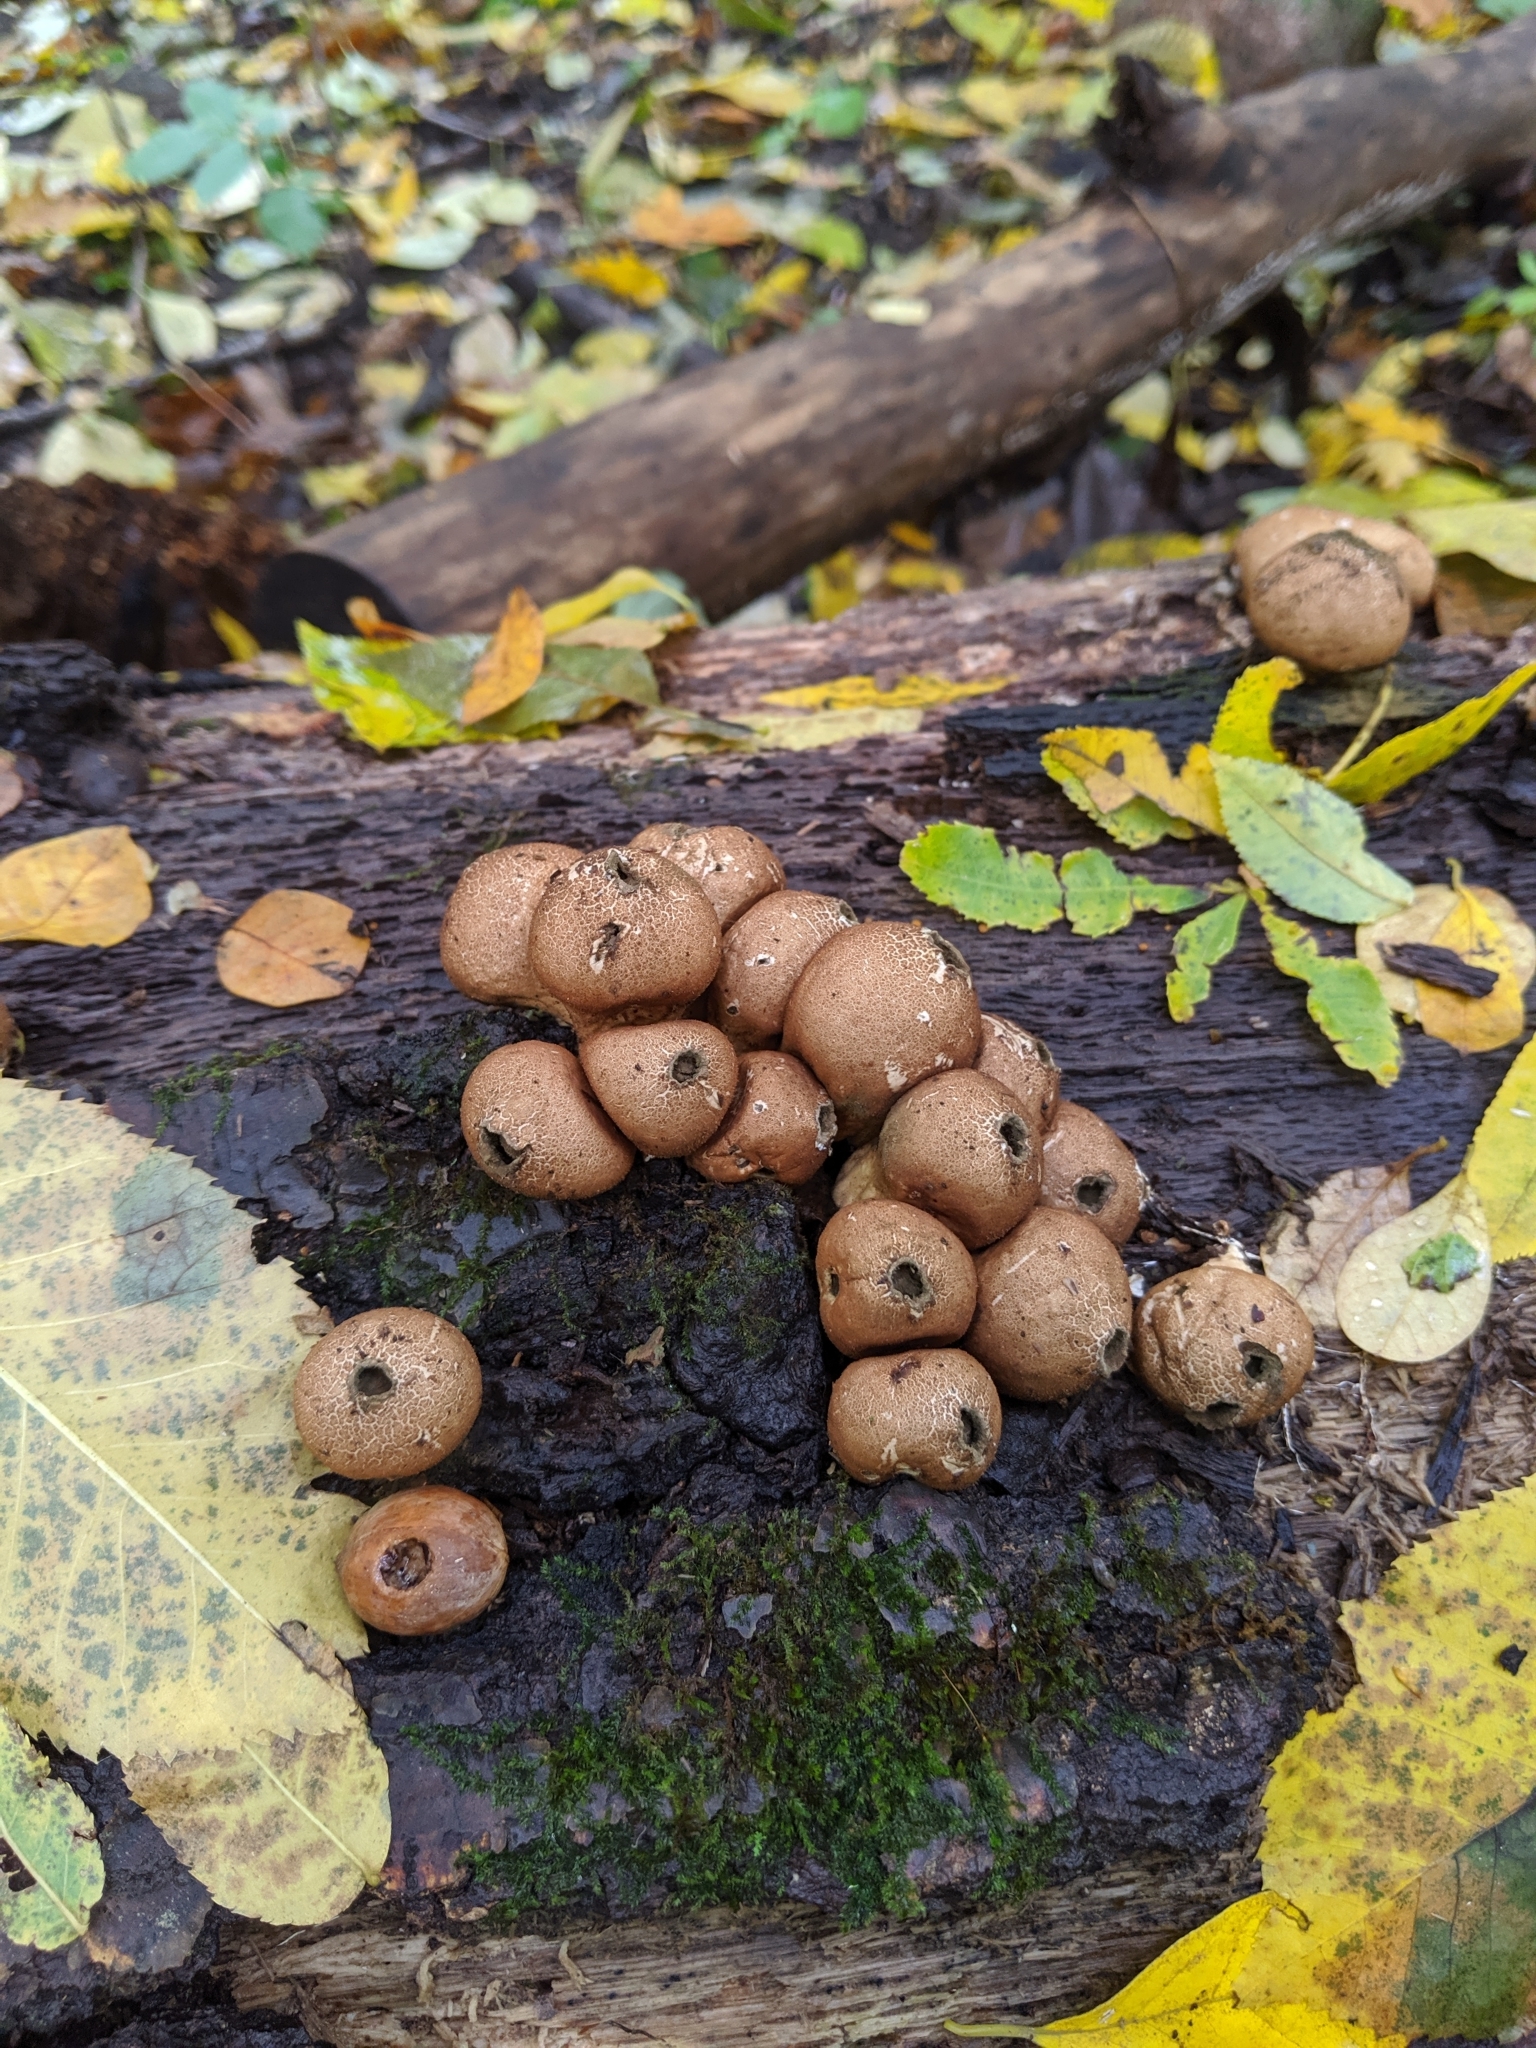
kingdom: Fungi
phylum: Basidiomycota
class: Agaricomycetes
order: Agaricales
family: Lycoperdaceae
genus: Apioperdon
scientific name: Apioperdon pyriforme
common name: Pear-shaped puffball
